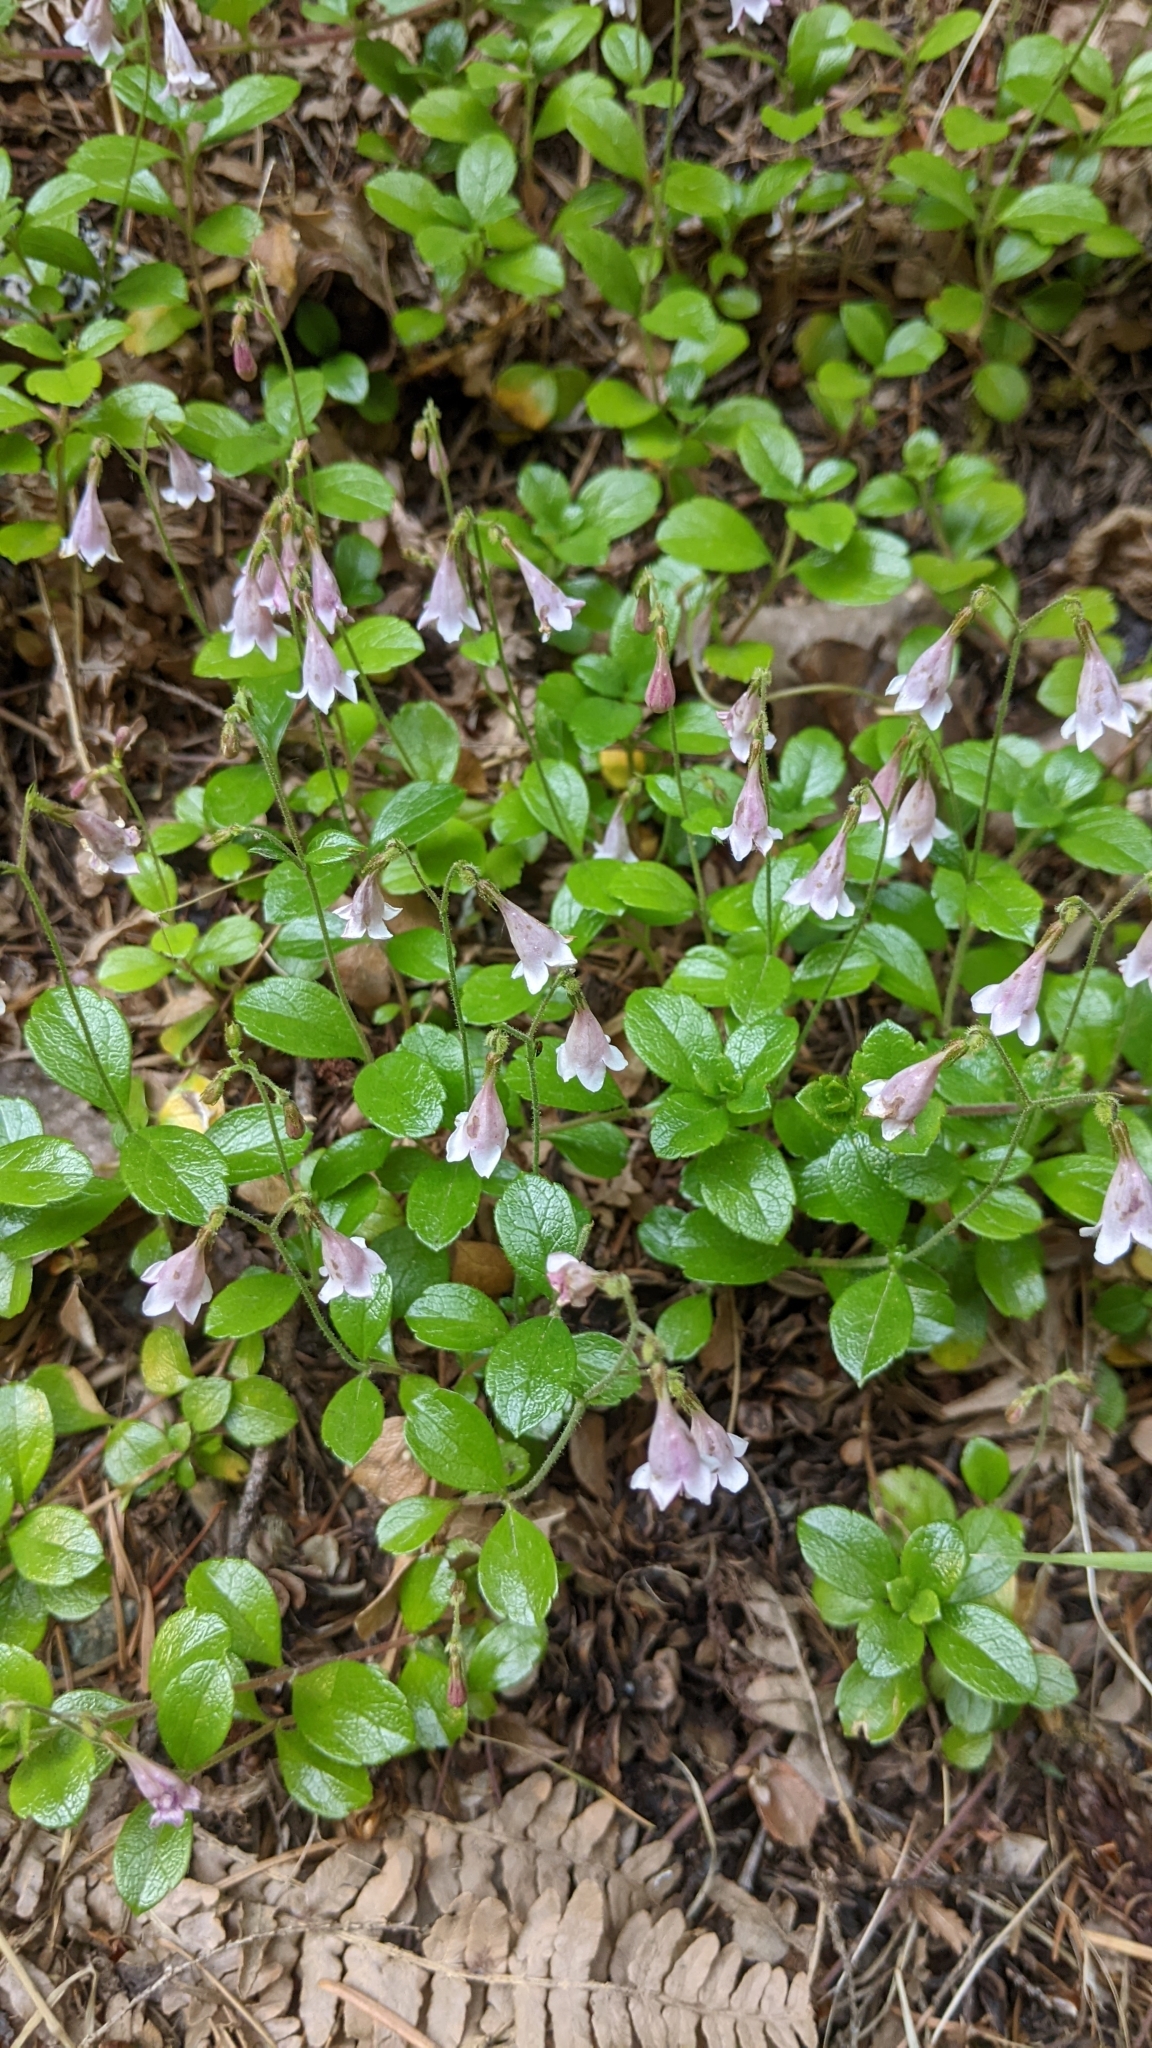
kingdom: Plantae
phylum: Tracheophyta
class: Magnoliopsida
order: Dipsacales
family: Caprifoliaceae
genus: Linnaea
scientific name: Linnaea borealis
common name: Twinflower
